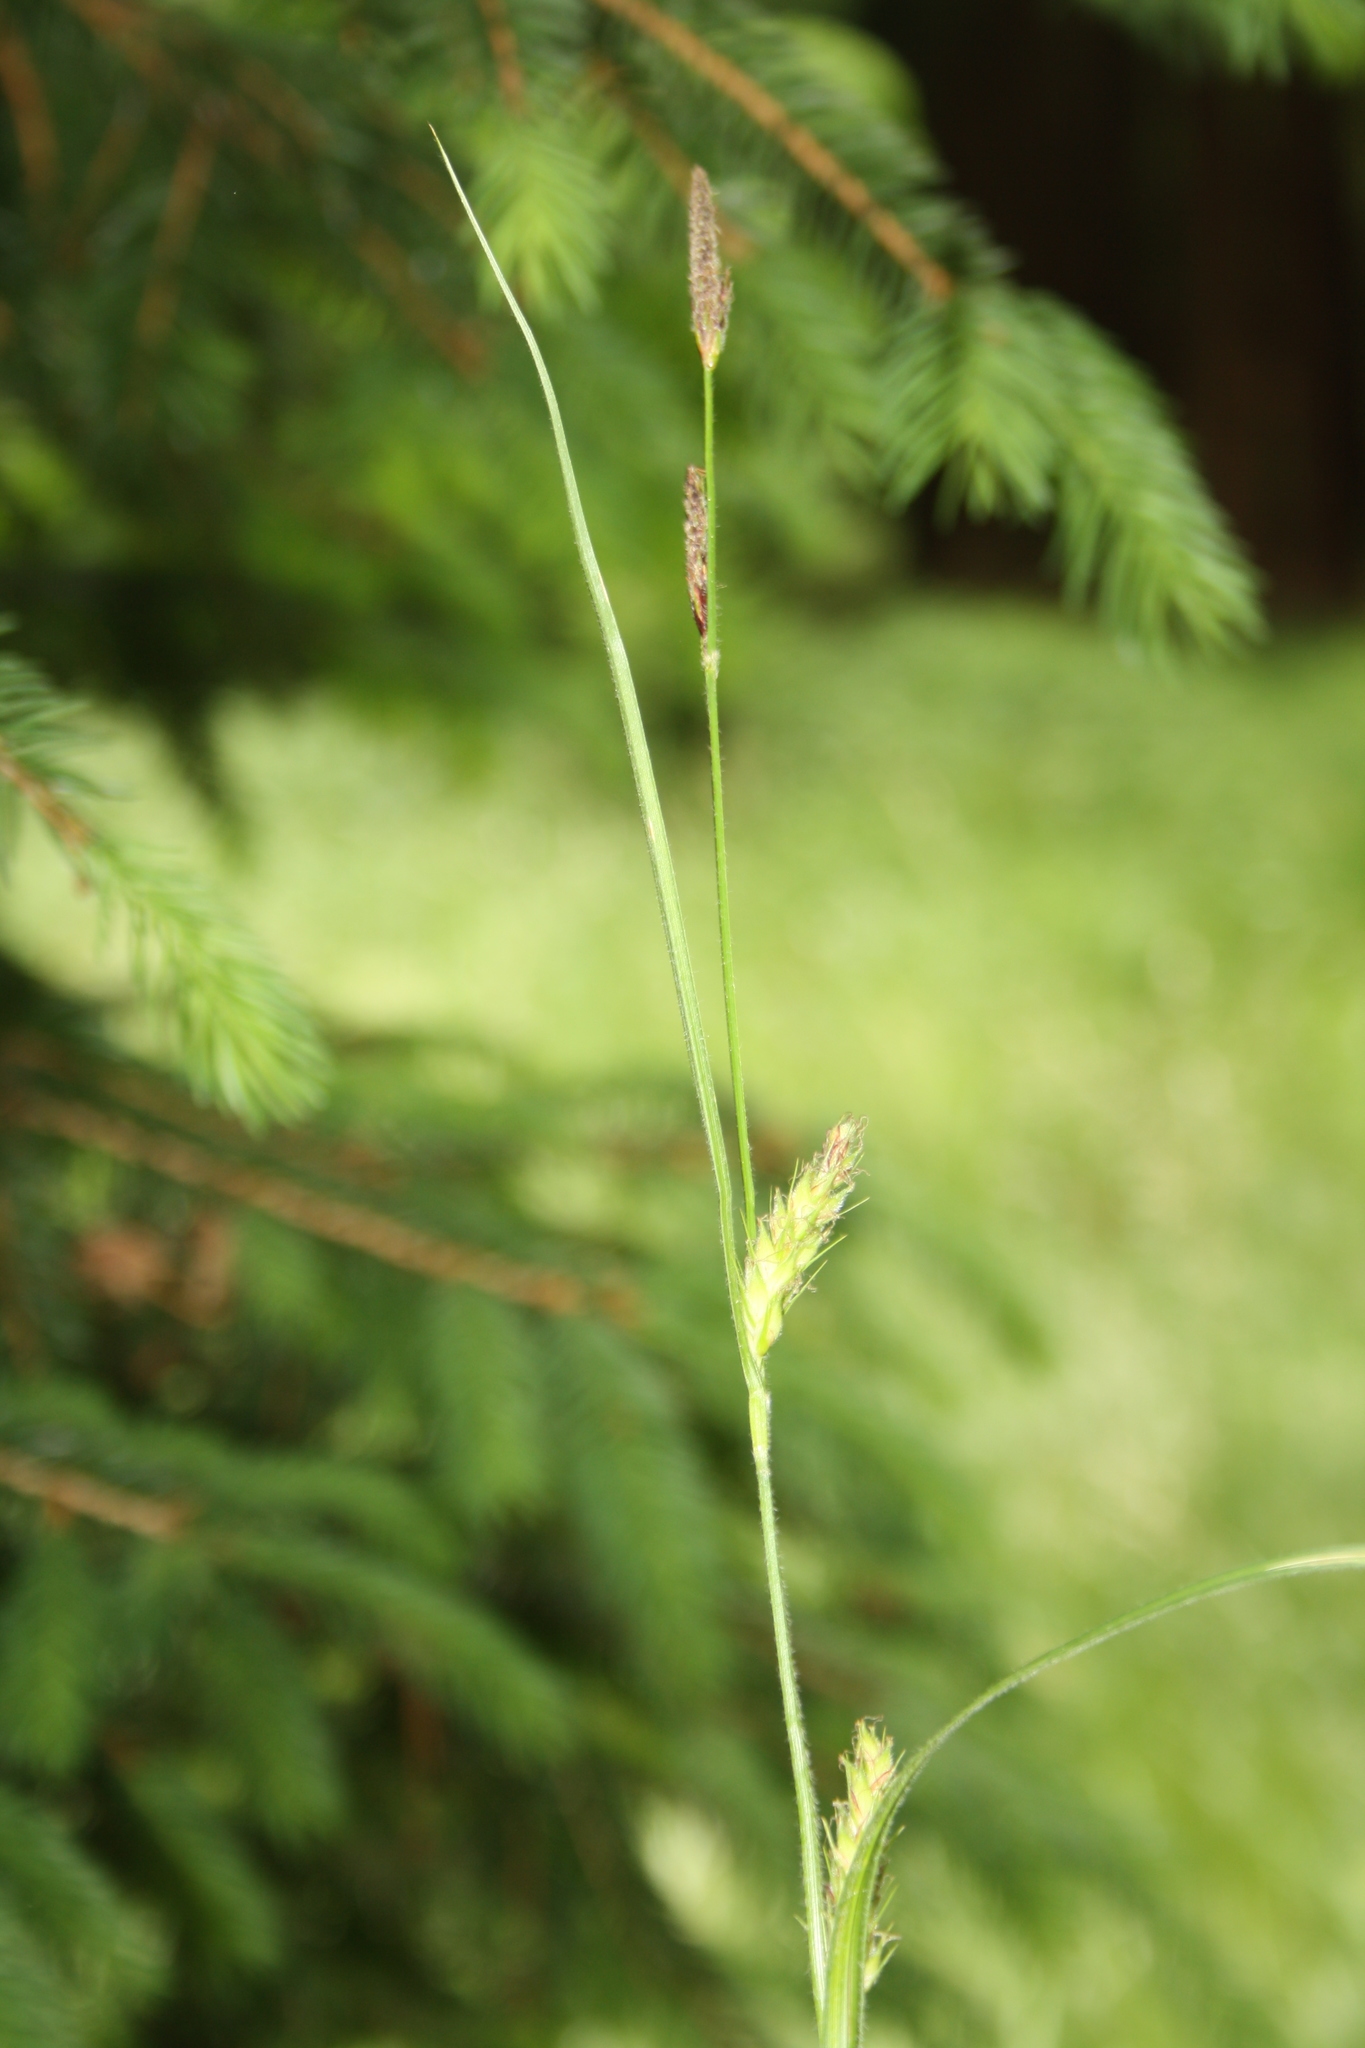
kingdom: Plantae
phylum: Tracheophyta
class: Liliopsida
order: Poales
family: Cyperaceae
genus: Carex
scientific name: Carex hirta
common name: Hairy sedge
